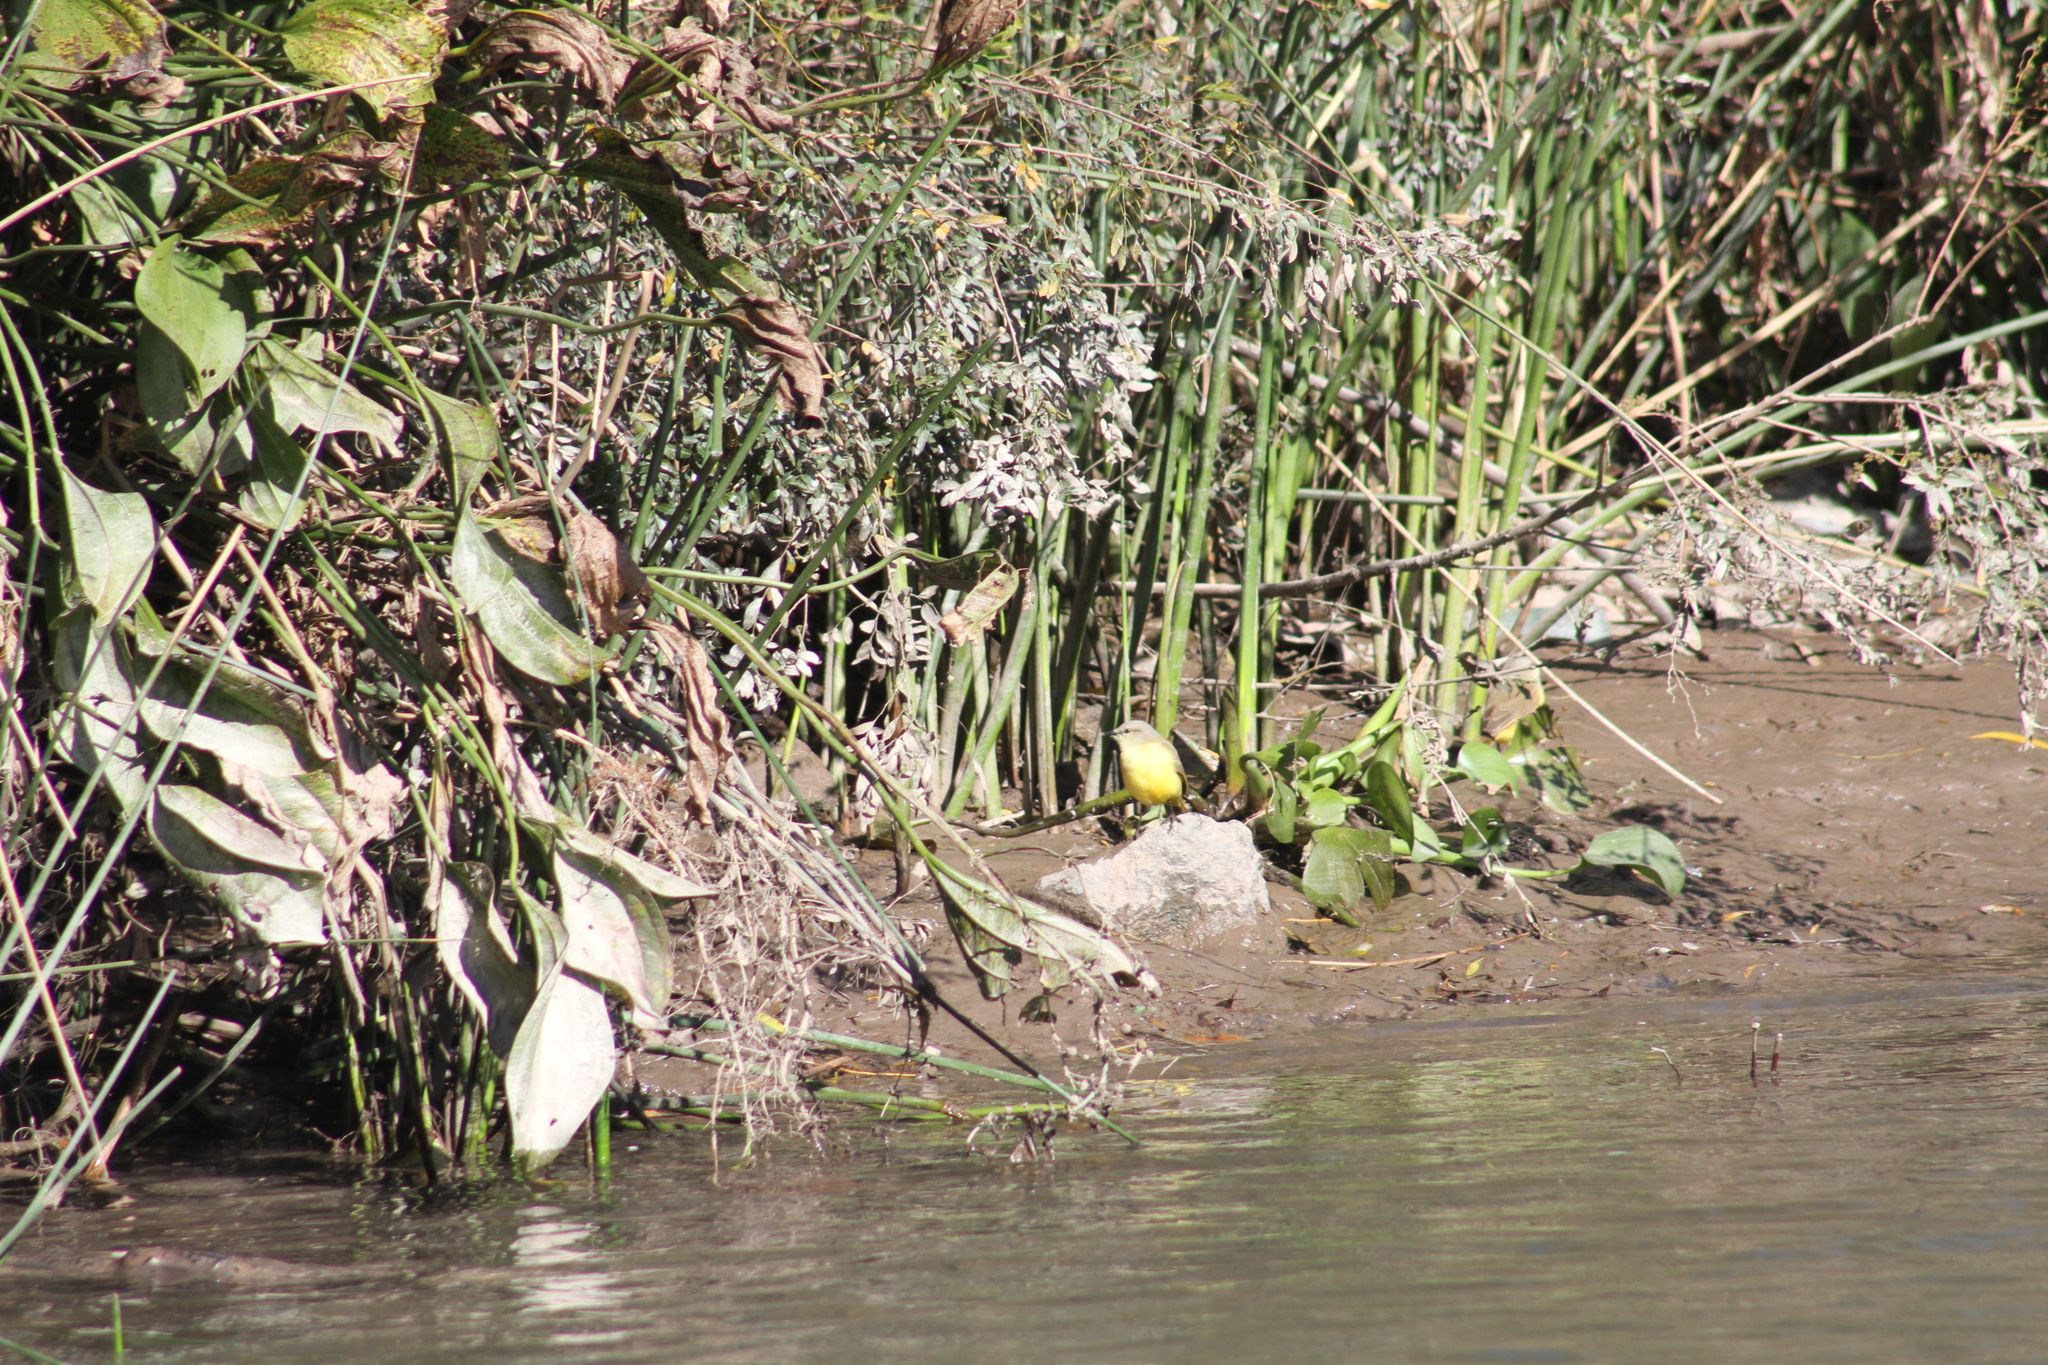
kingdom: Animalia
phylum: Chordata
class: Aves
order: Passeriformes
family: Tyrannidae
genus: Machetornis
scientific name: Machetornis rixosa
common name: Cattle tyrant
